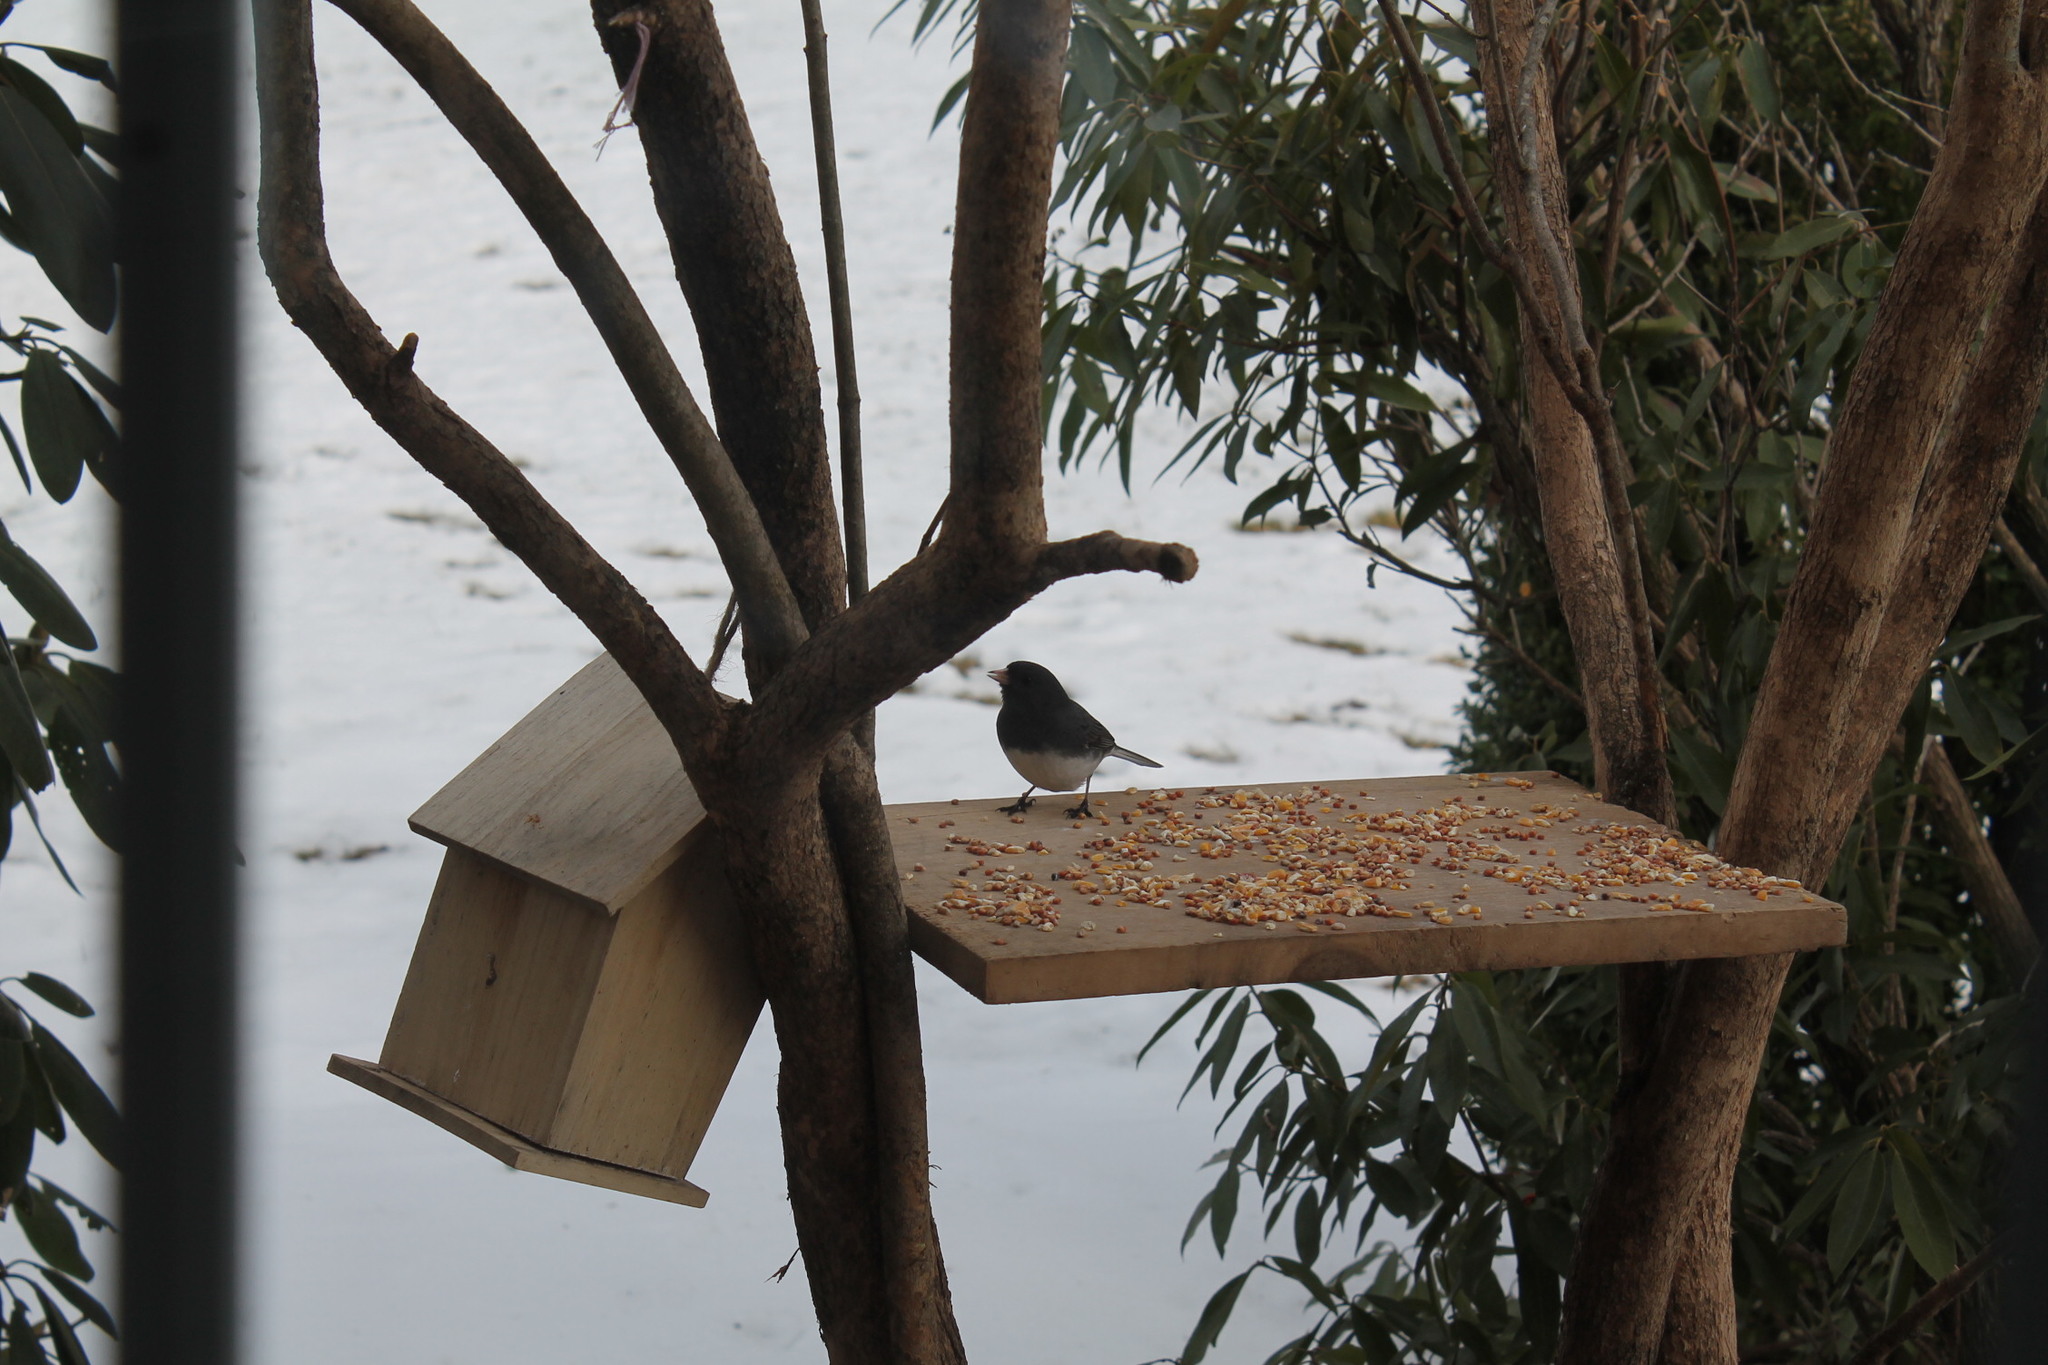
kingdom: Animalia
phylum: Chordata
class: Aves
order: Passeriformes
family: Passerellidae
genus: Junco
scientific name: Junco hyemalis
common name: Dark-eyed junco
